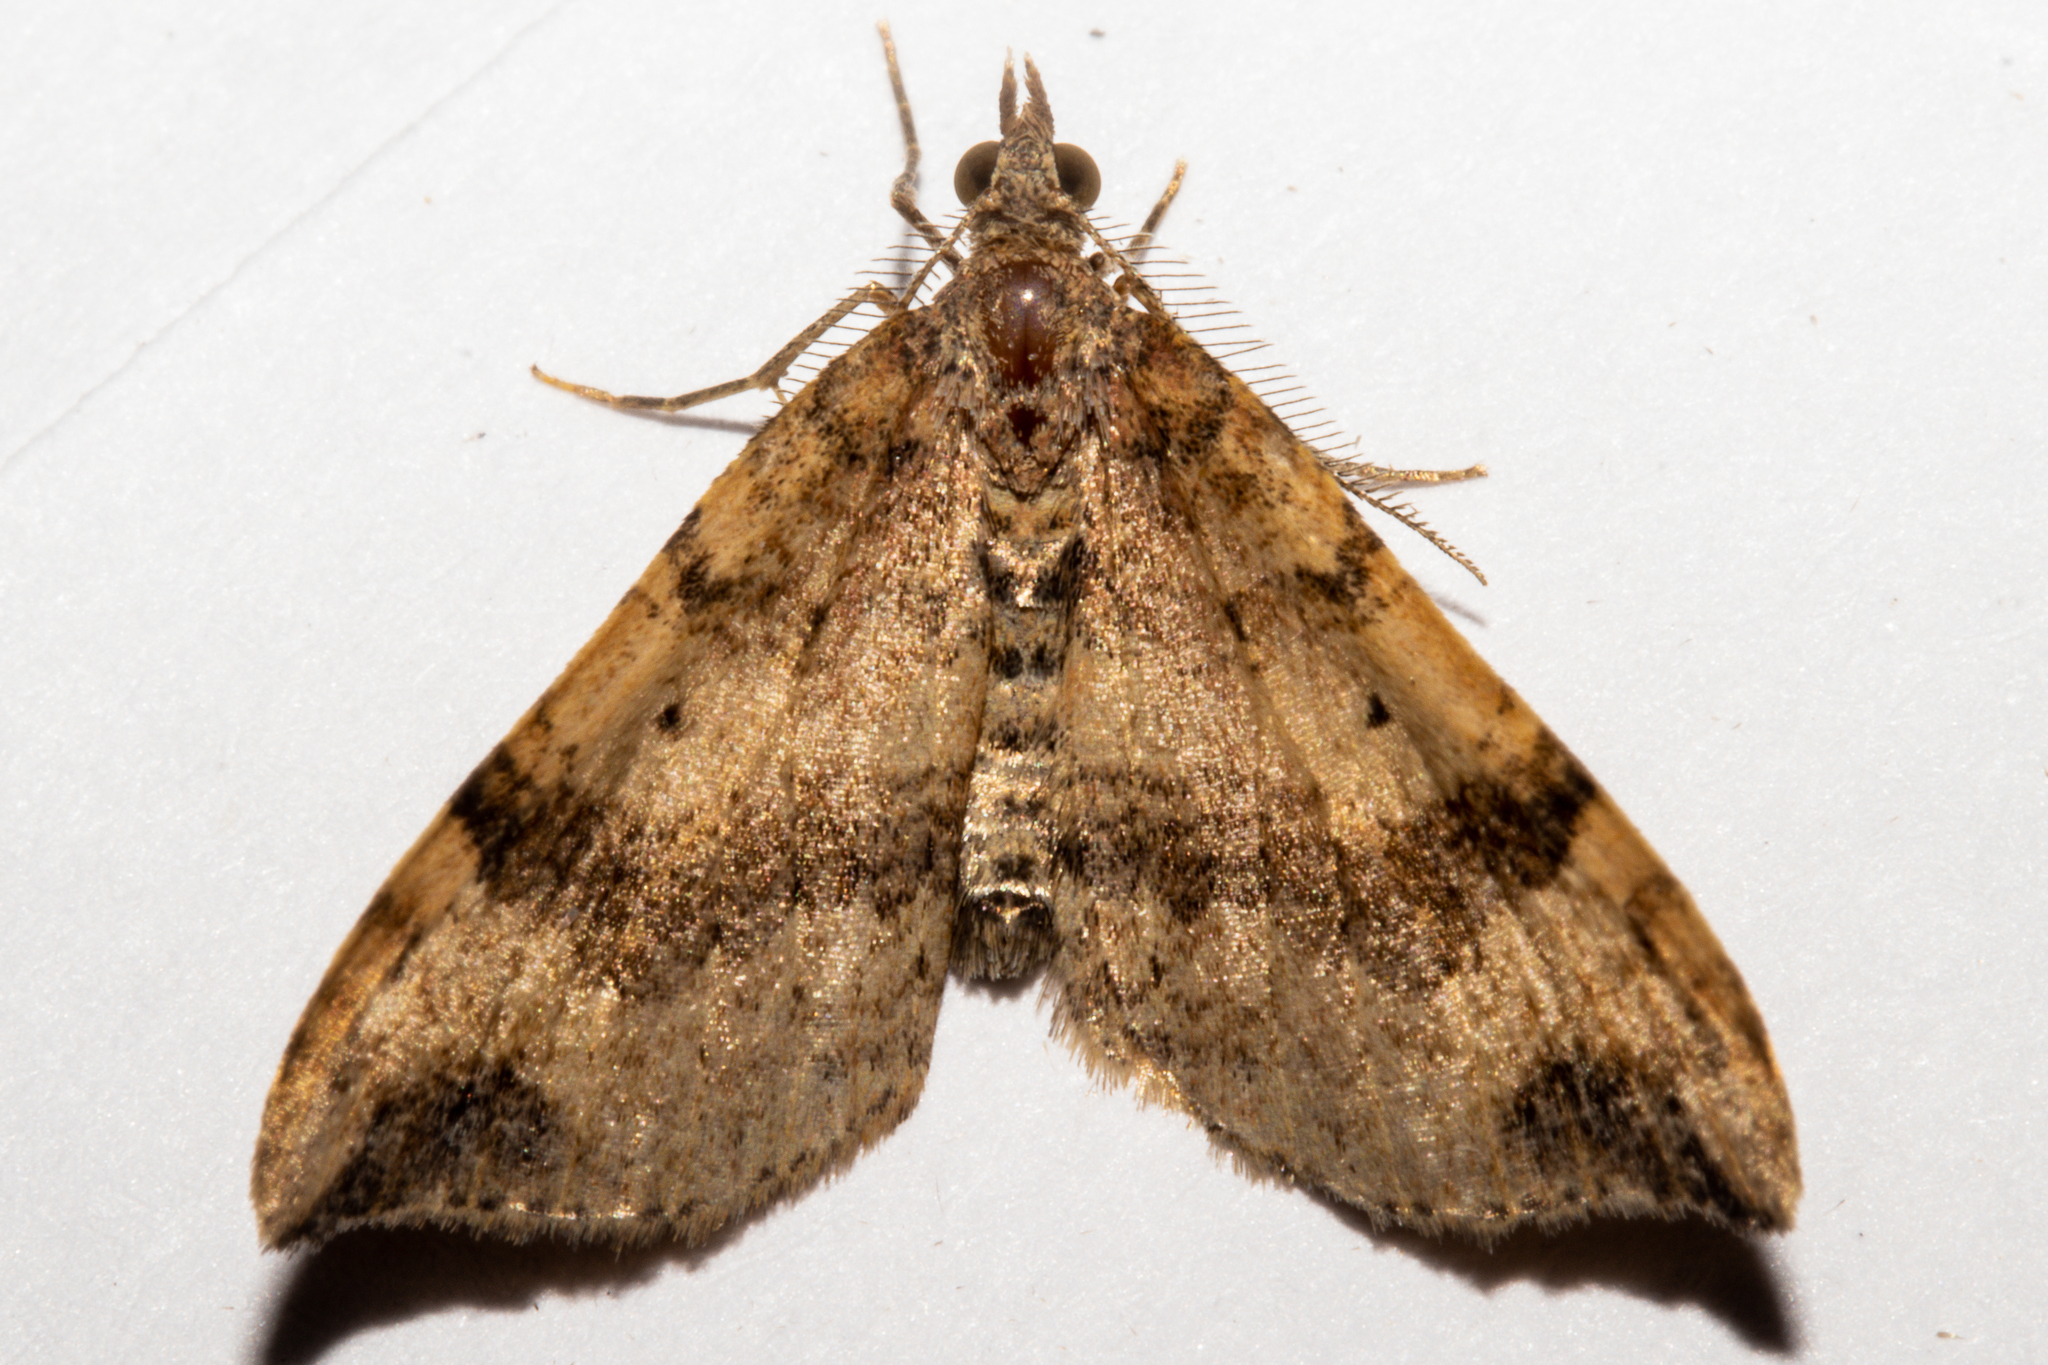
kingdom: Animalia
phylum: Arthropoda
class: Insecta
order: Lepidoptera
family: Geometridae
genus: Homodotis
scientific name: Homodotis megaspilata
